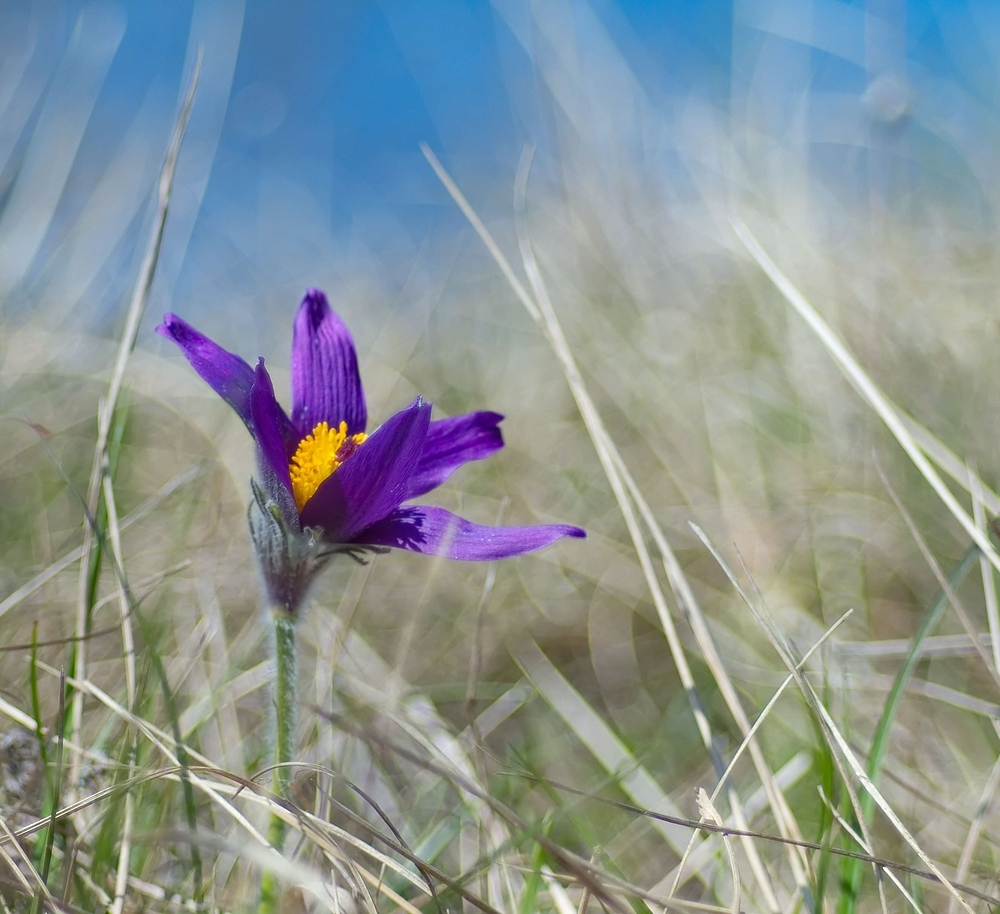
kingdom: Plantae
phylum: Tracheophyta
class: Magnoliopsida
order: Ranunculales
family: Ranunculaceae
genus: Pulsatilla
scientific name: Pulsatilla vulgaris
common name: Pasqueflower
